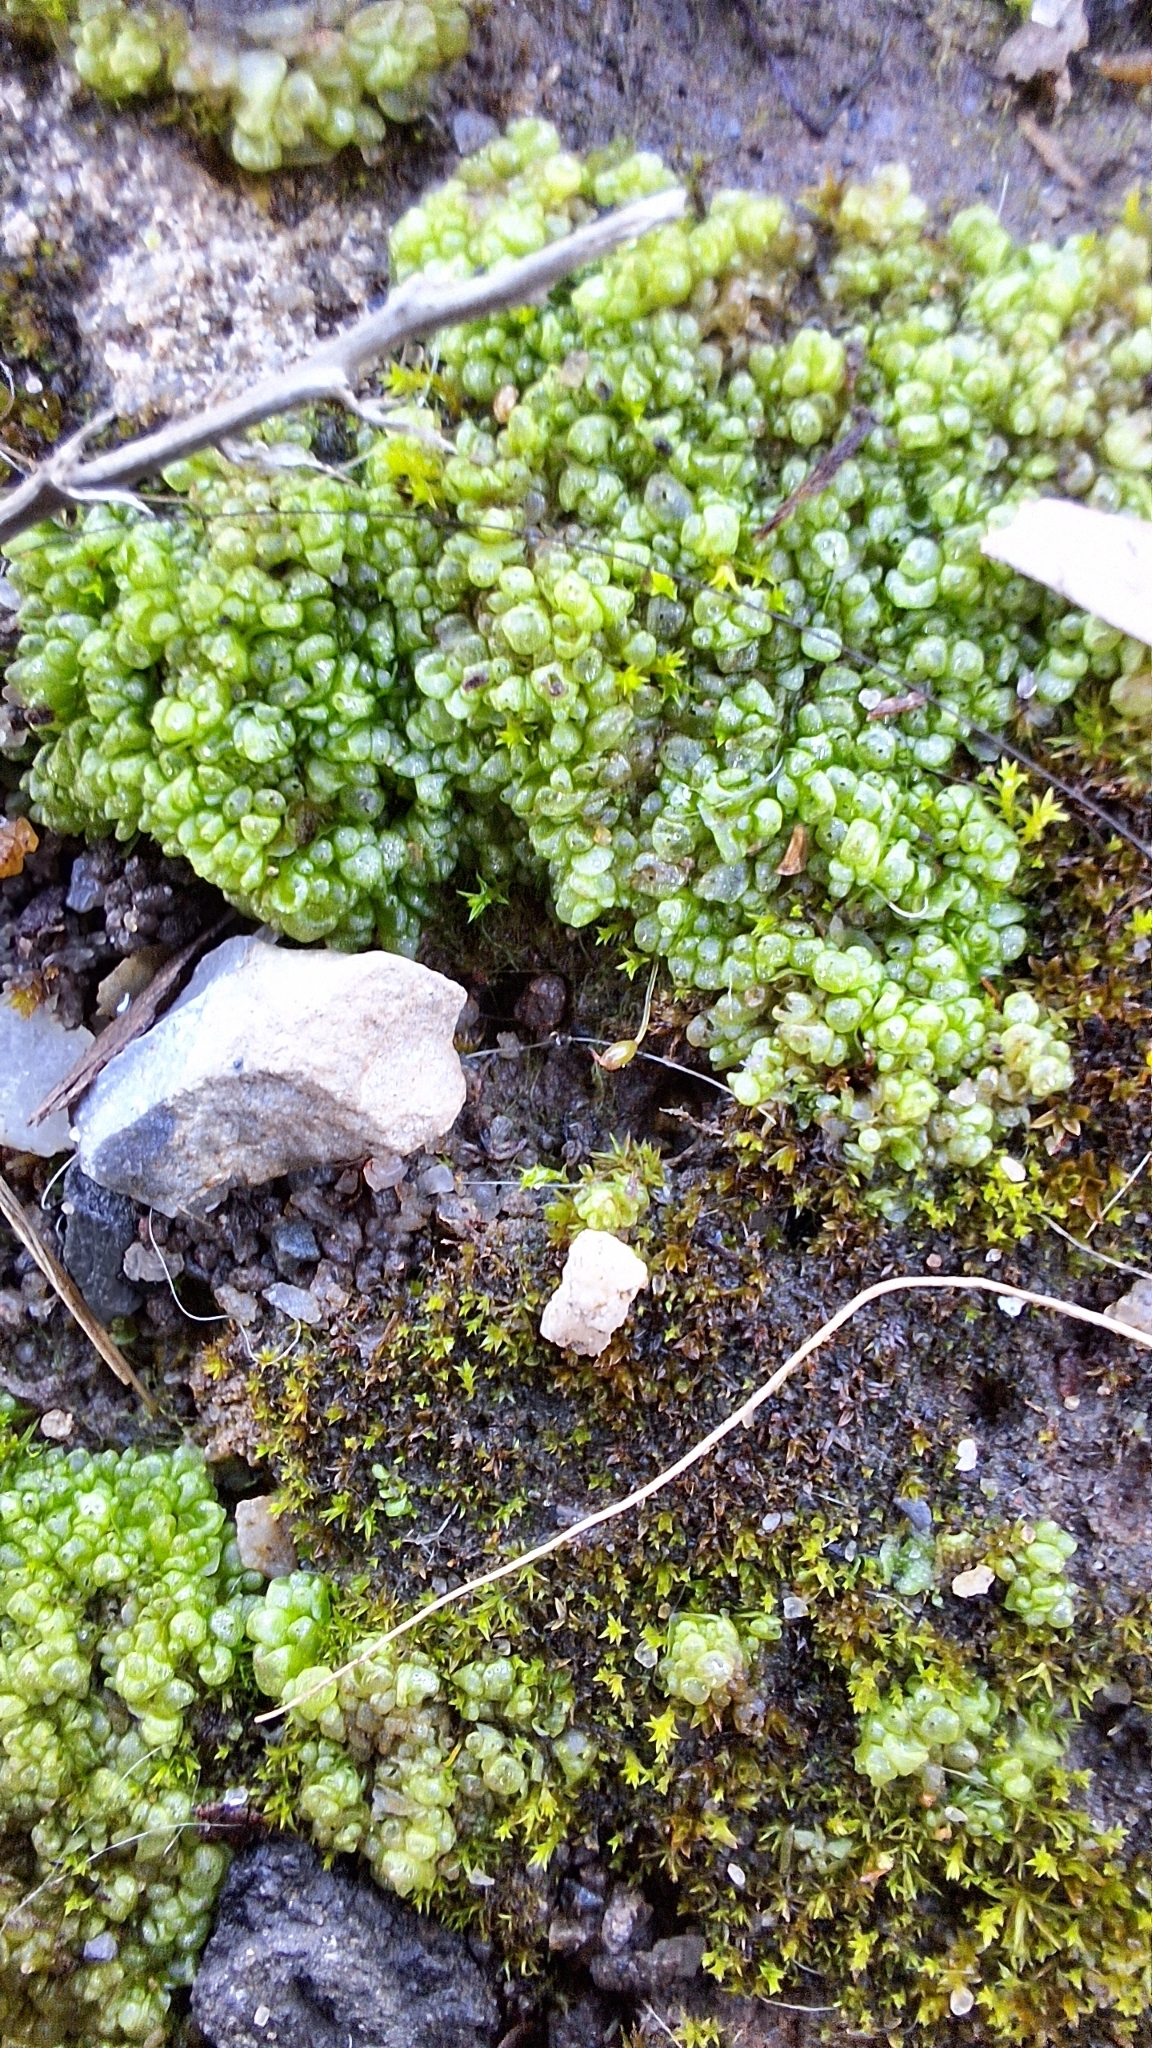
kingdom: Plantae
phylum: Marchantiophyta
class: Marchantiopsida
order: Sphaerocarpales
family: Sphaerocarpaceae
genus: Sphaerocarpos
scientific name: Sphaerocarpos texanus
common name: Texas balloonwort
